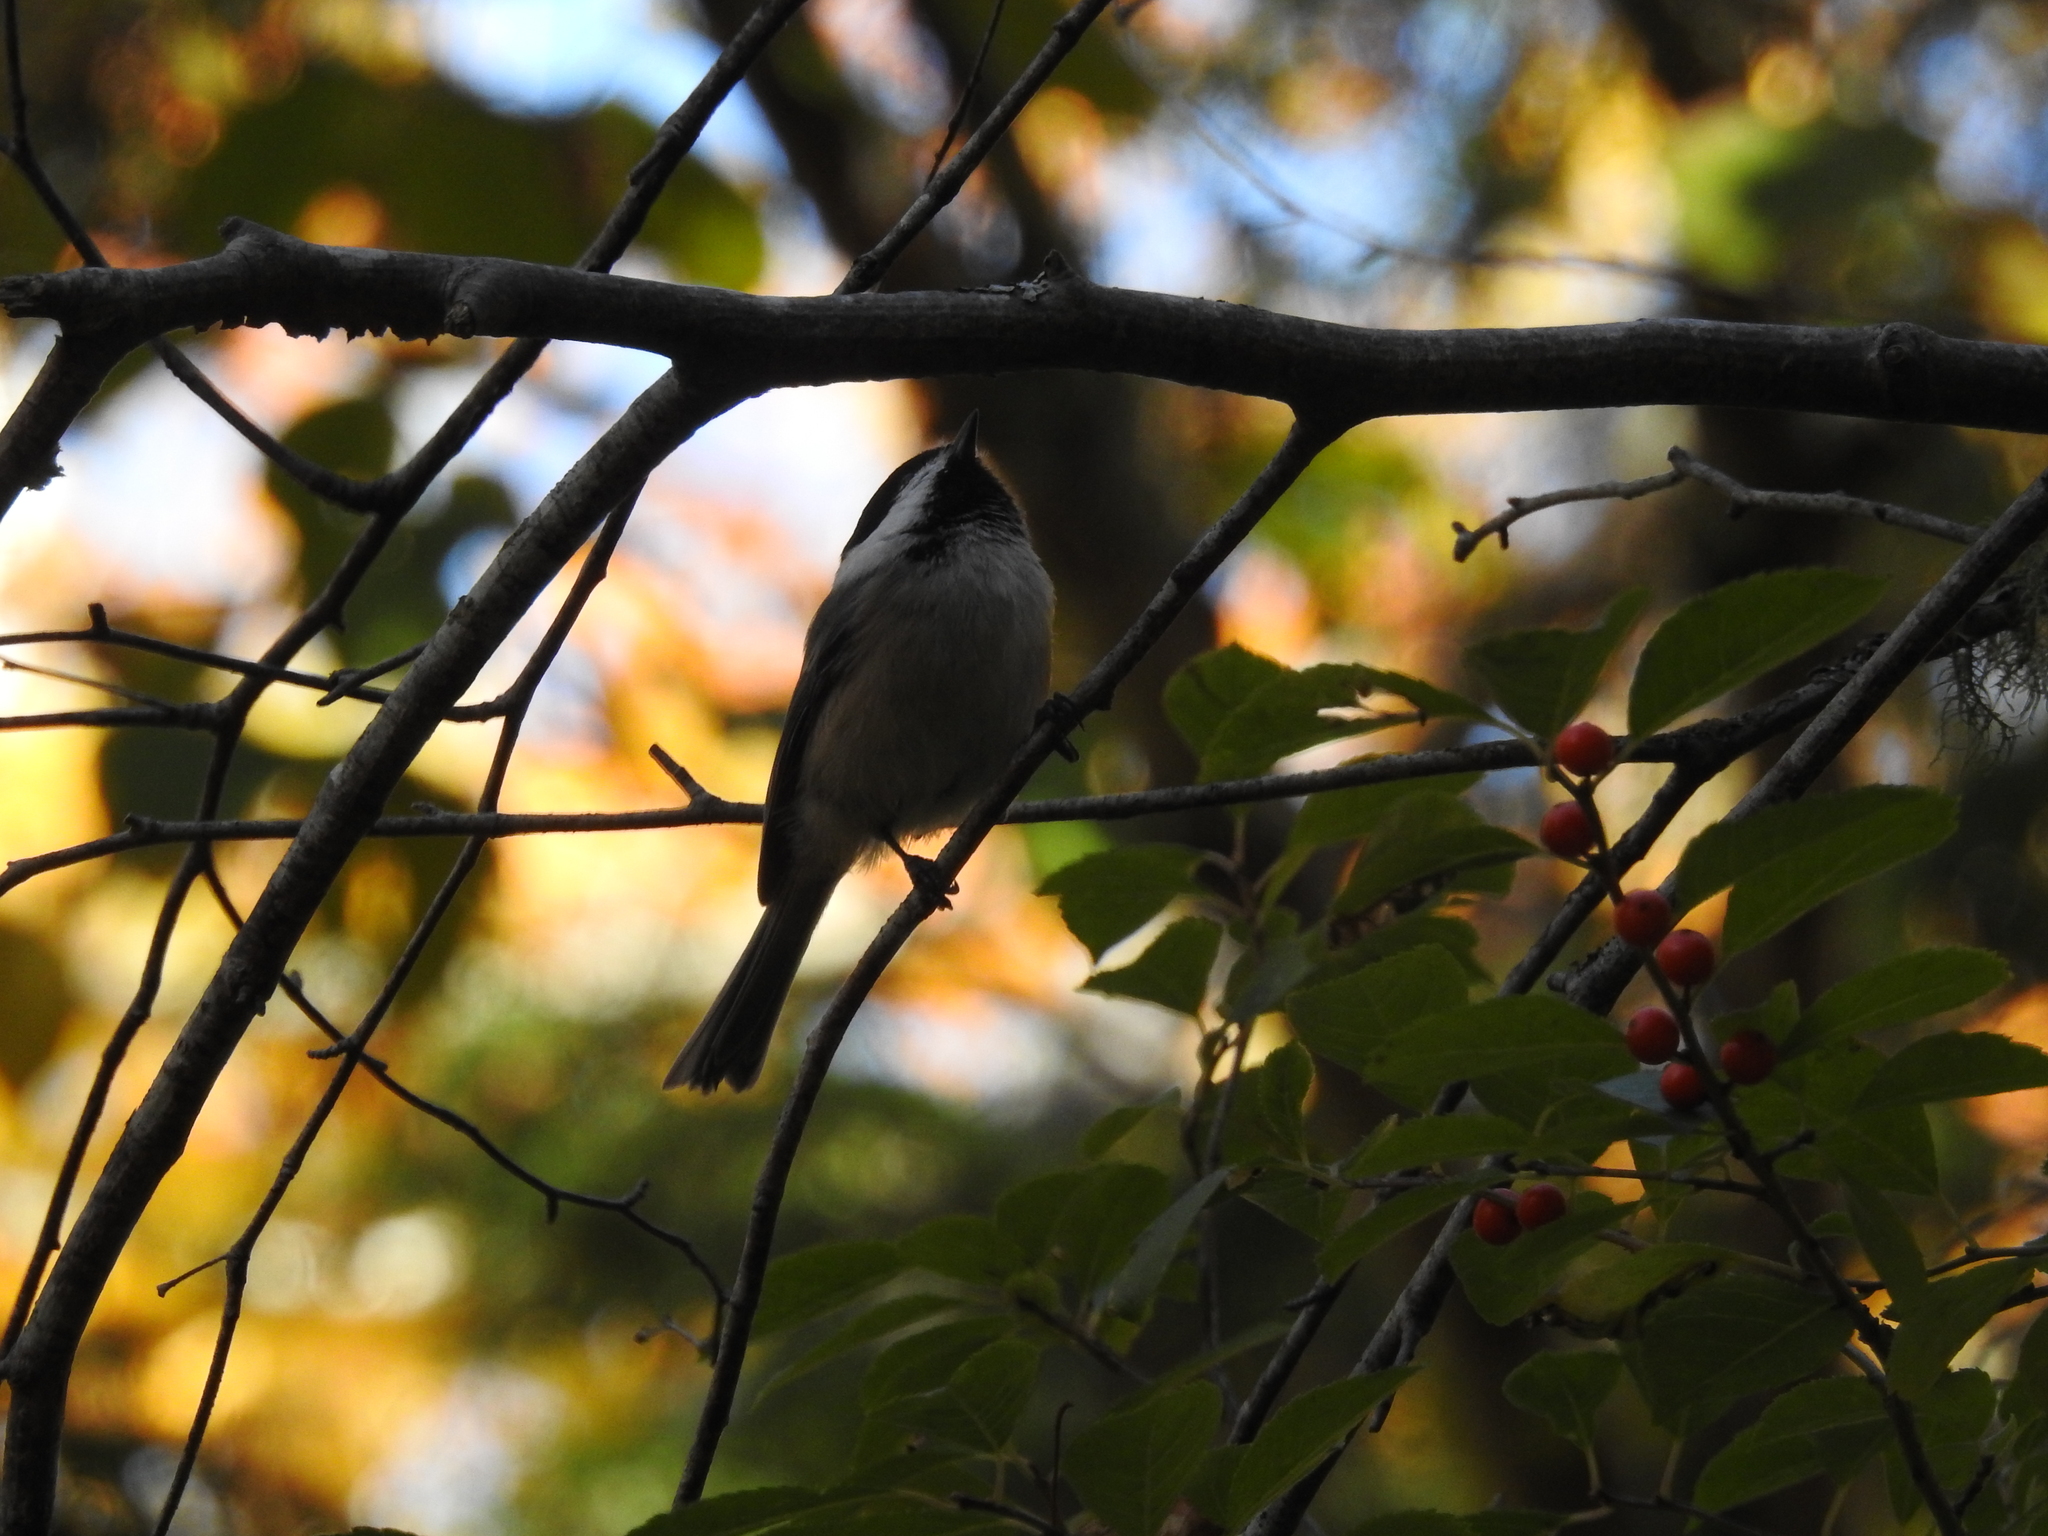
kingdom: Animalia
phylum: Chordata
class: Aves
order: Passeriformes
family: Paridae
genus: Poecile
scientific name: Poecile atricapillus
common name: Black-capped chickadee
